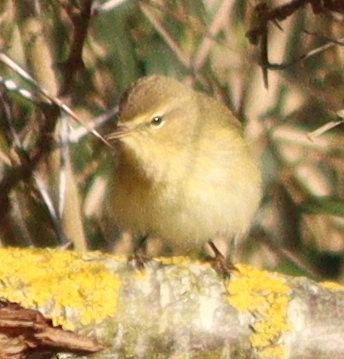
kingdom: Animalia
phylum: Chordata
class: Aves
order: Passeriformes
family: Phylloscopidae
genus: Phylloscopus
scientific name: Phylloscopus collybita
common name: Common chiffchaff
